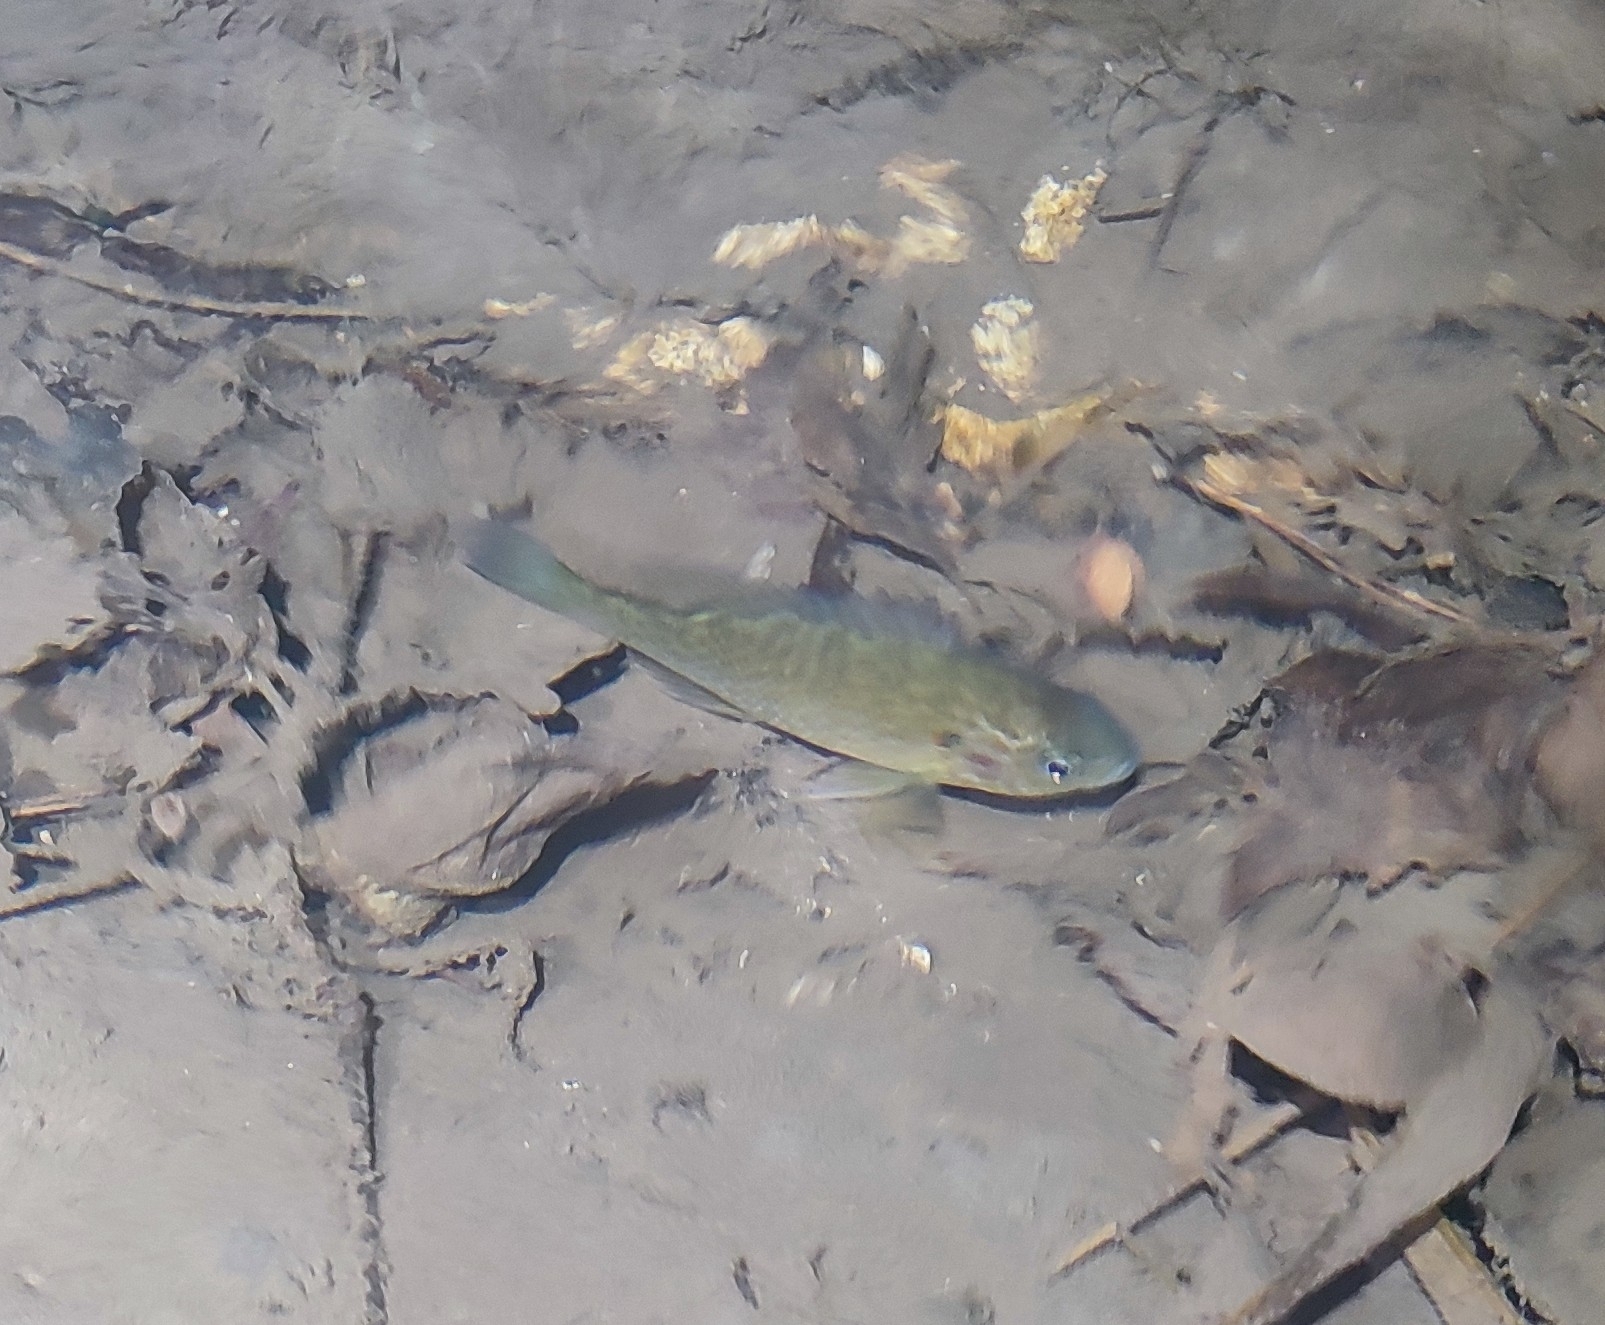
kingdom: Animalia
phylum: Chordata
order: Perciformes
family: Centrarchidae
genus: Lepomis
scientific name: Lepomis gibbosus
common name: Pumpkinseed
